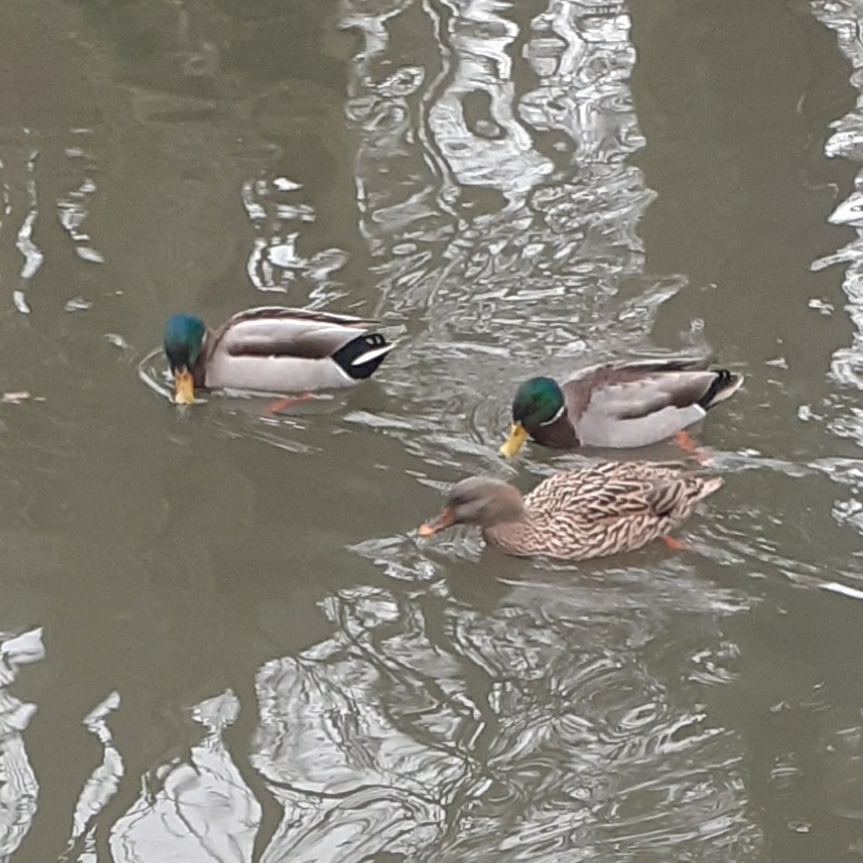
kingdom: Animalia
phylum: Chordata
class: Aves
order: Anseriformes
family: Anatidae
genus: Anas
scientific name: Anas platyrhynchos
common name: Mallard
